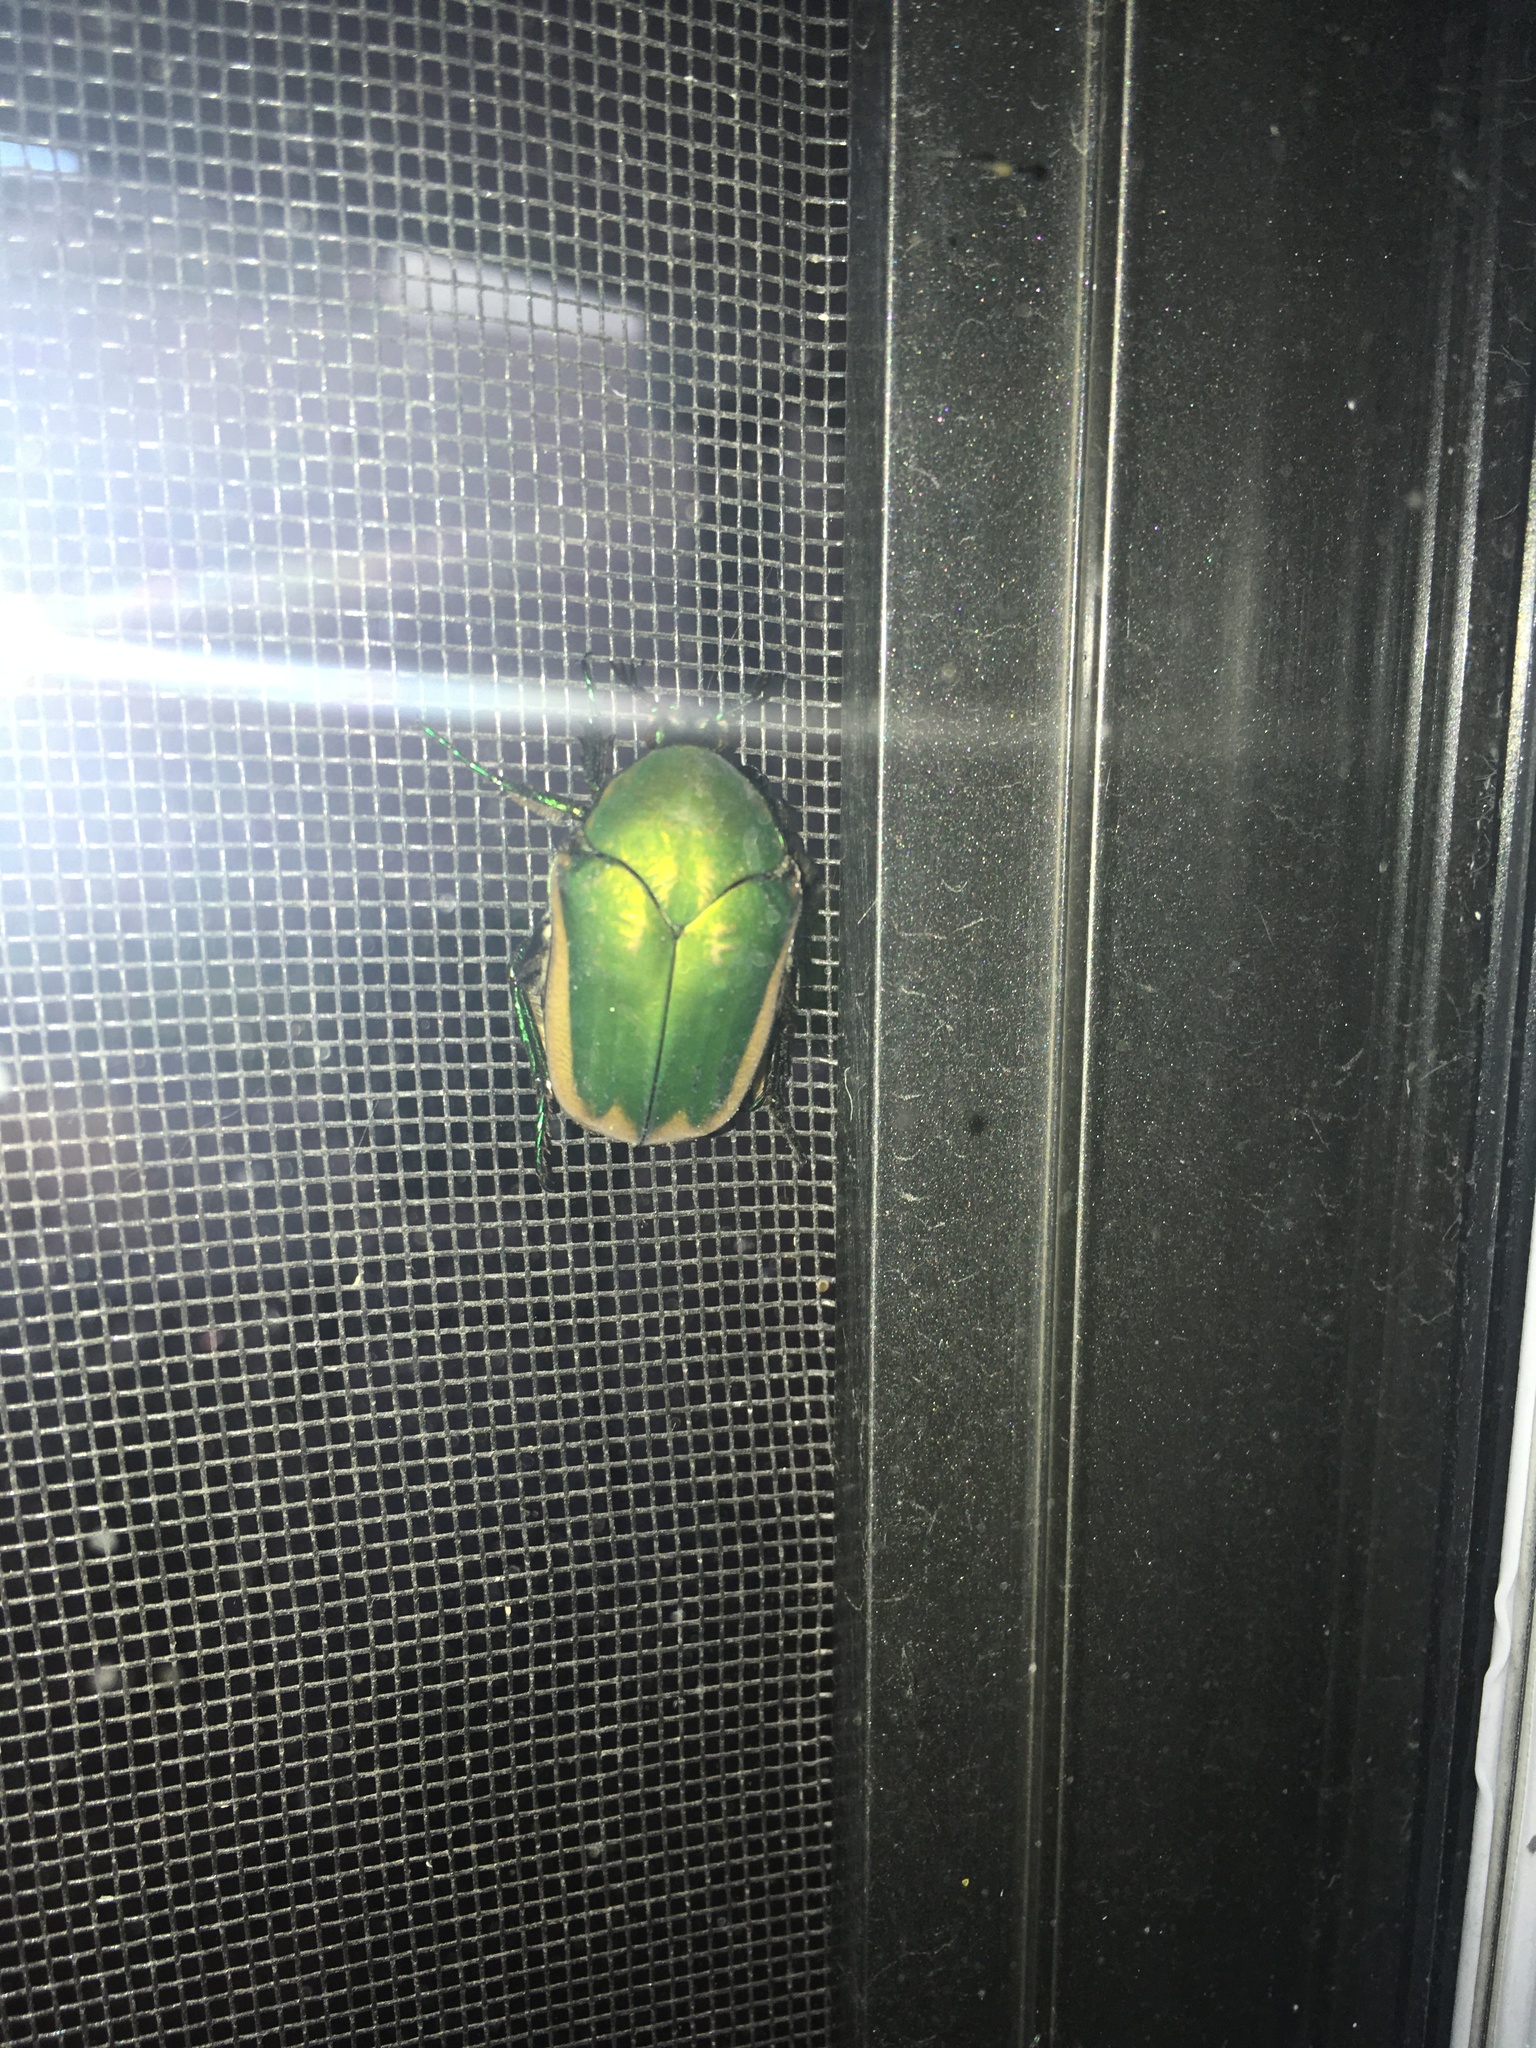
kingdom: Animalia
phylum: Arthropoda
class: Insecta
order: Coleoptera
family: Scarabaeidae
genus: Cotinis
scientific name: Cotinis mutabilis
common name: Figeater beetle
